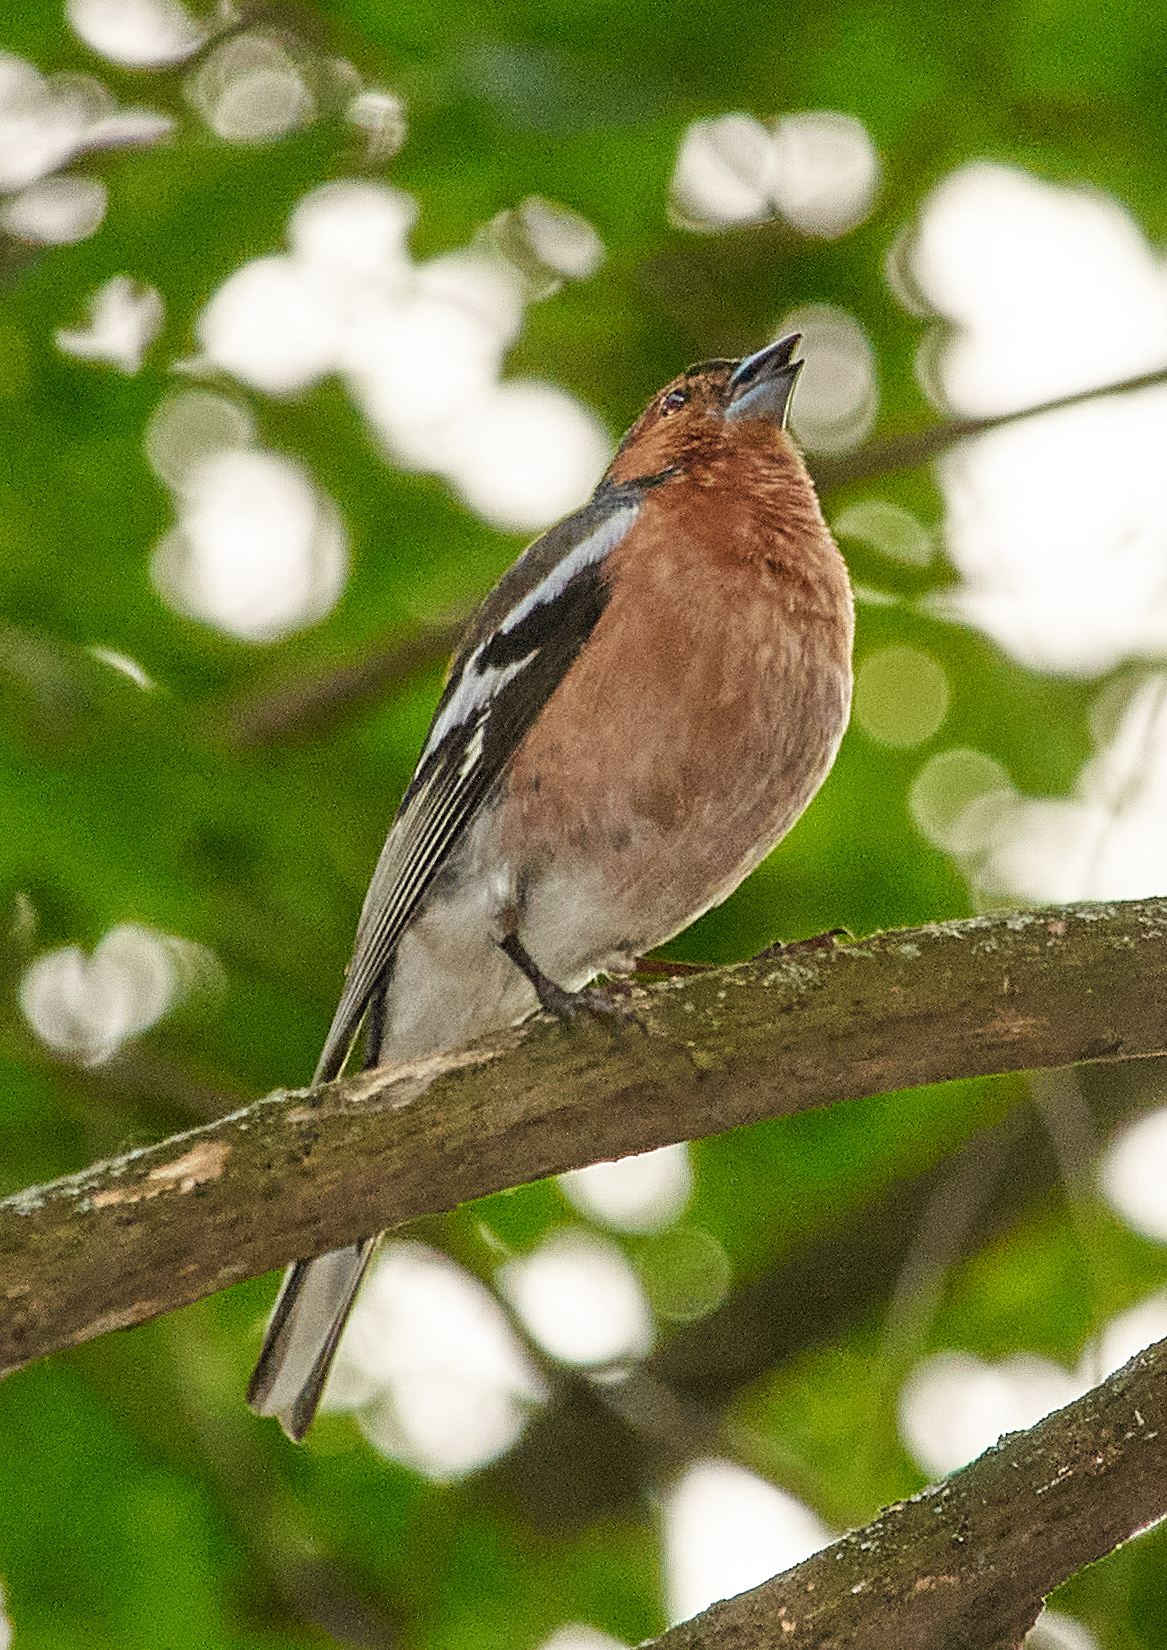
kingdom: Animalia
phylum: Chordata
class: Aves
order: Passeriformes
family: Fringillidae
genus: Fringilla
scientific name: Fringilla coelebs
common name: Common chaffinch
